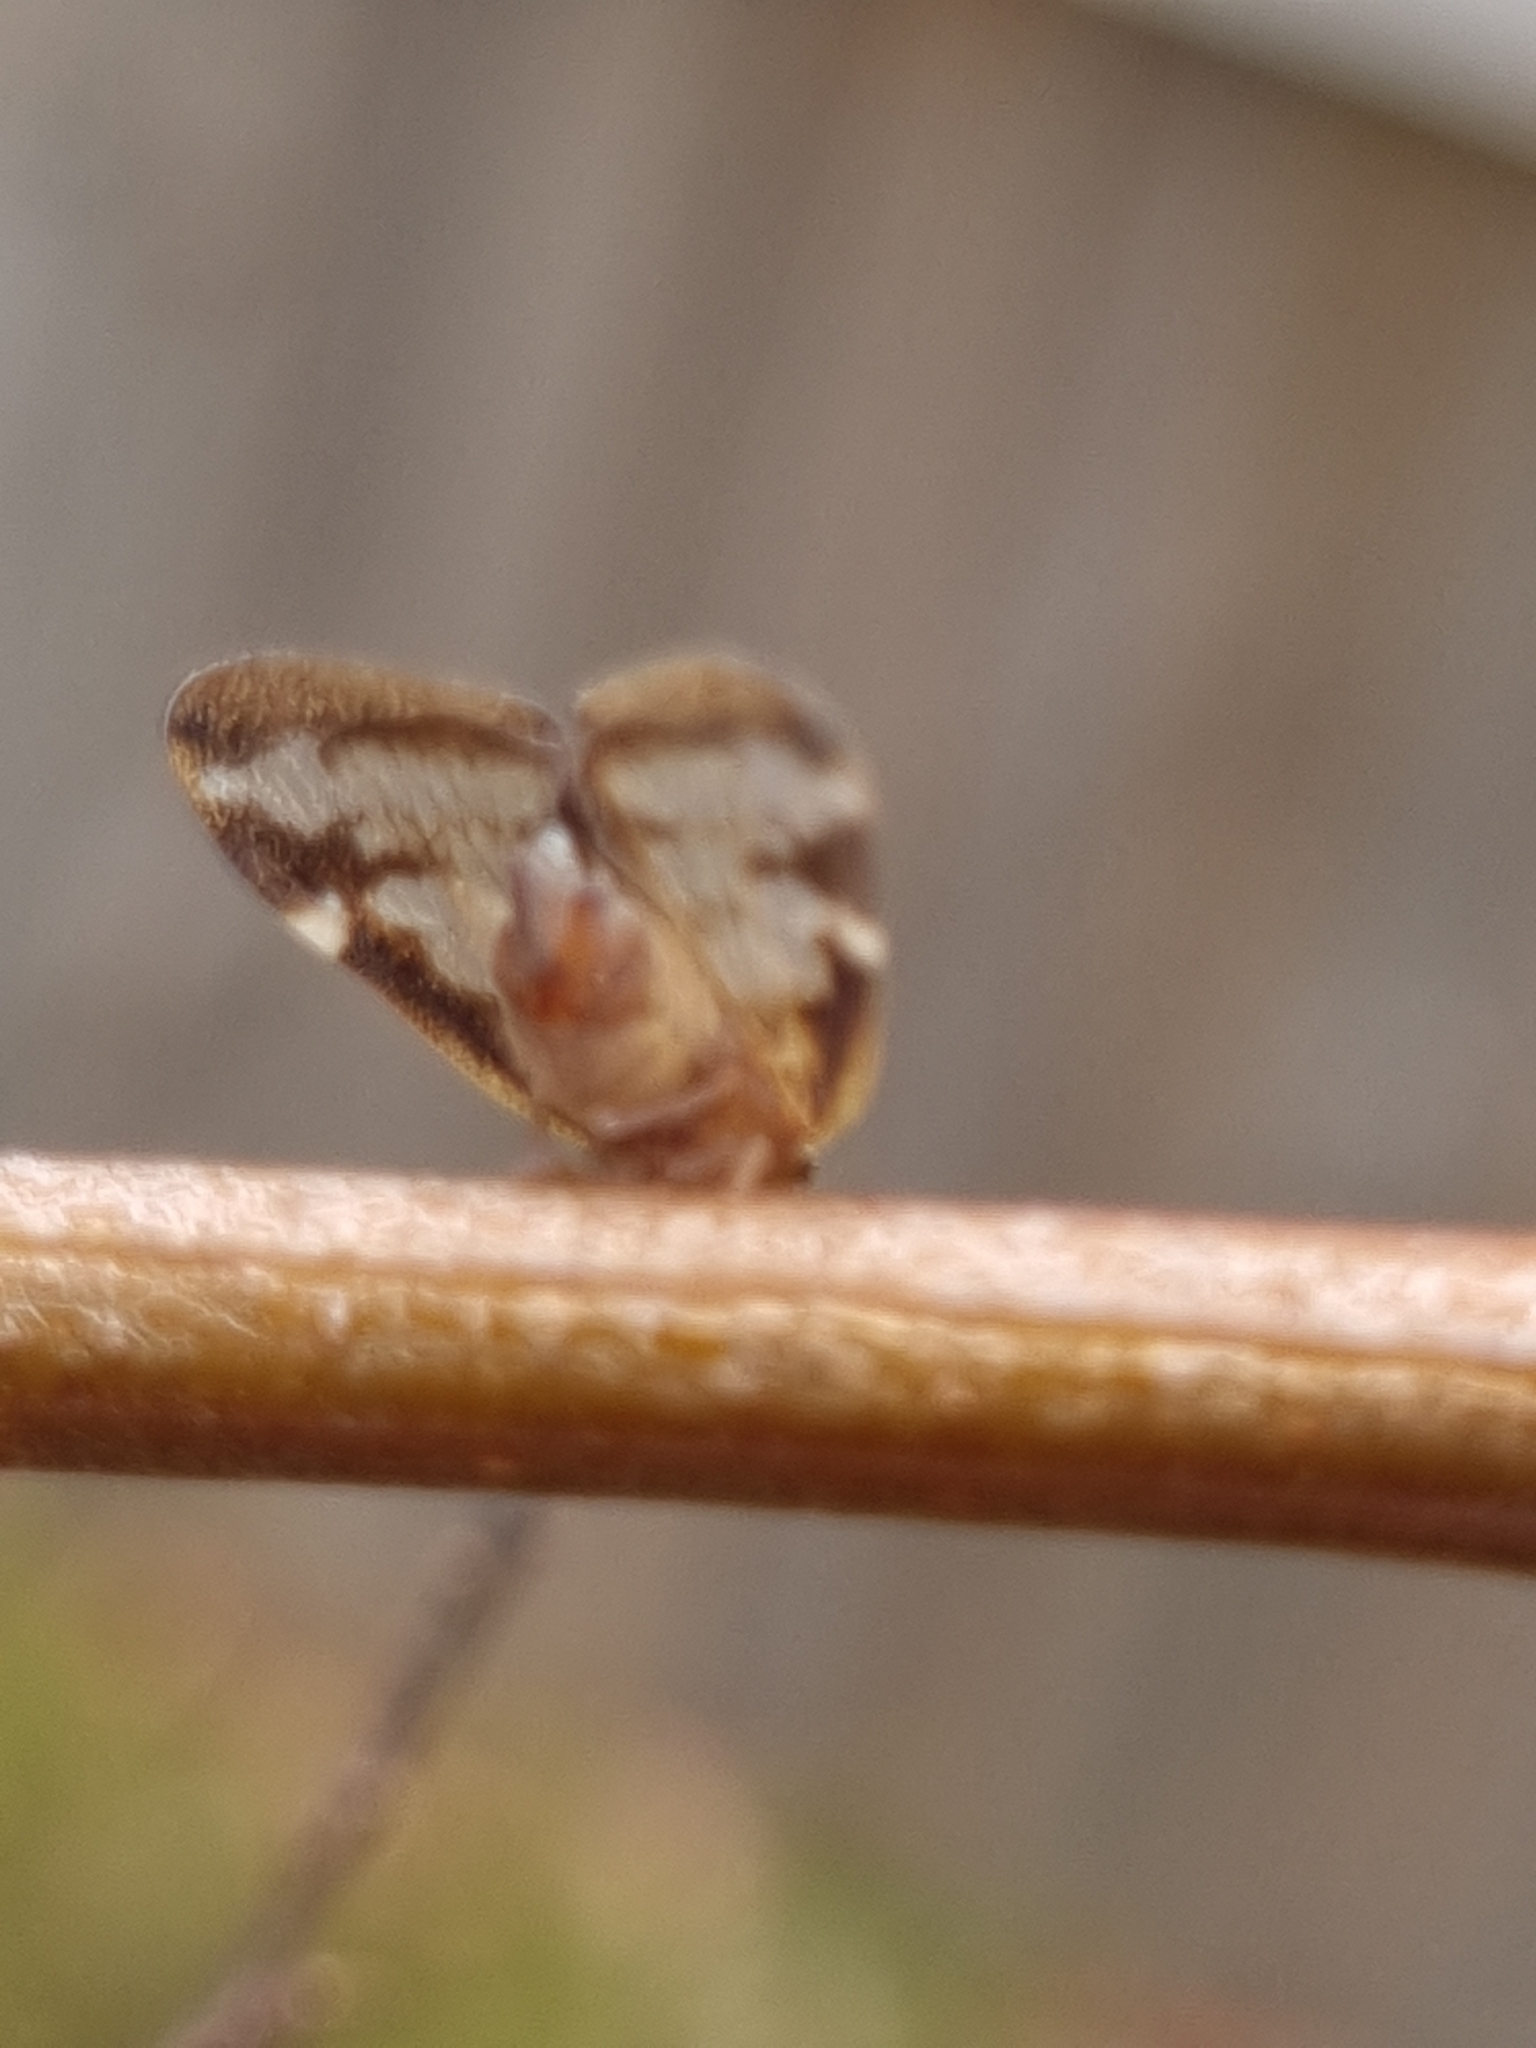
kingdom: Animalia
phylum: Arthropoda
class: Insecta
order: Hemiptera
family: Ricaniidae
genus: Scolypopa
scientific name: Scolypopa australis
